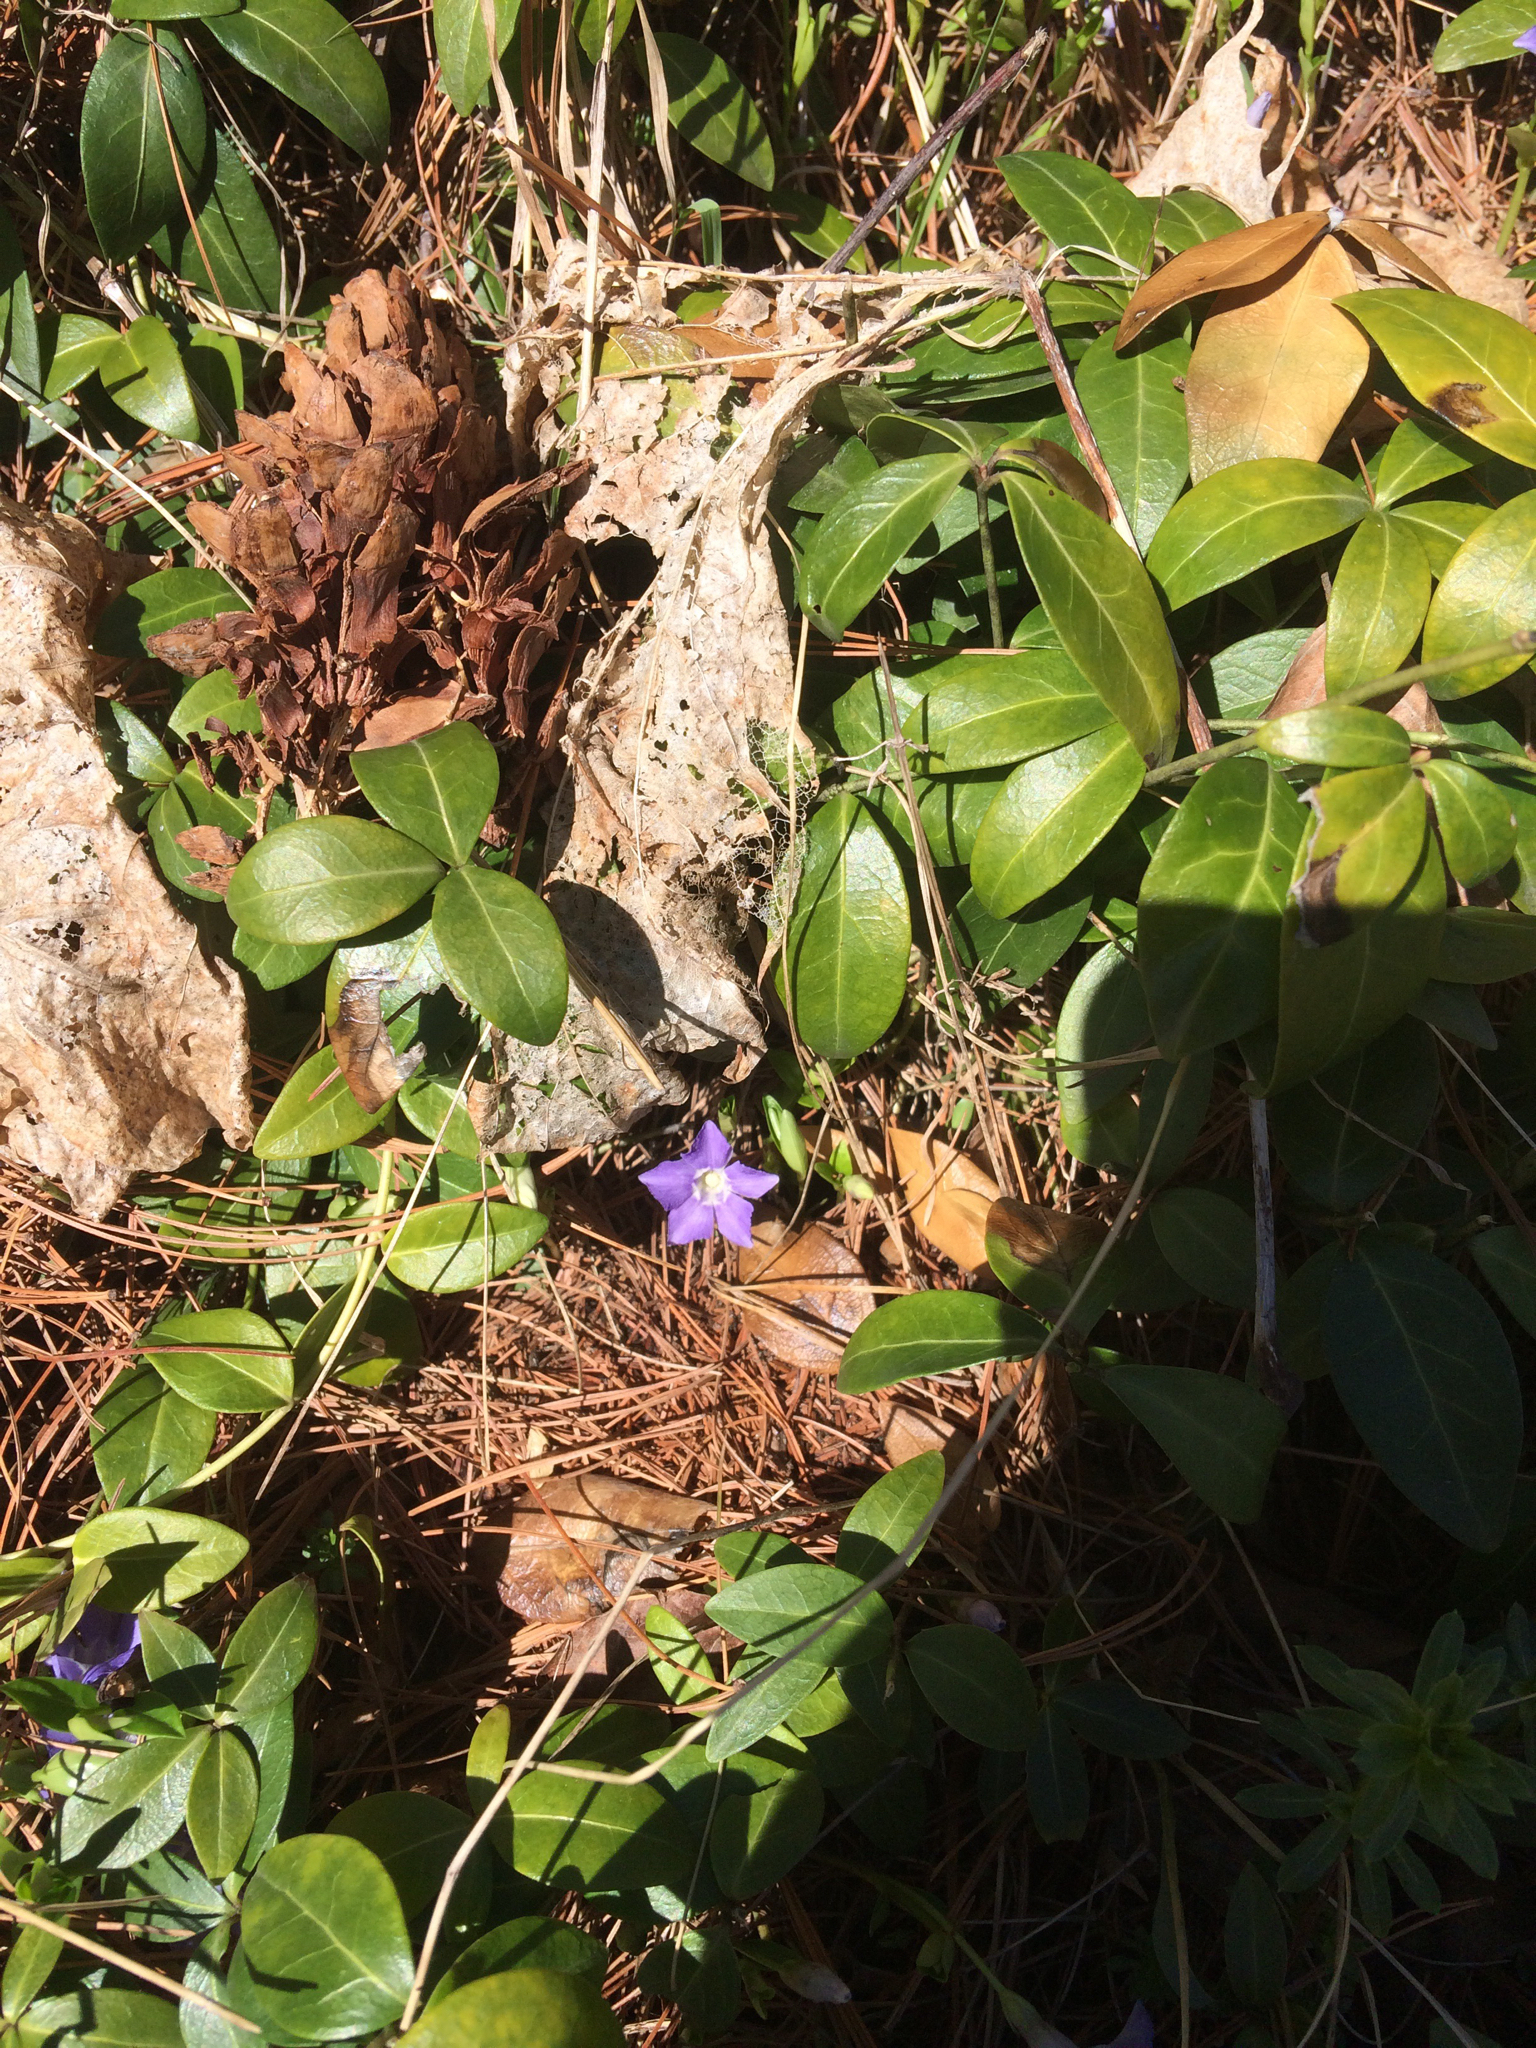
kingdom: Plantae
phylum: Tracheophyta
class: Magnoliopsida
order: Gentianales
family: Apocynaceae
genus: Vinca
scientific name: Vinca minor
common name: Lesser periwinkle
